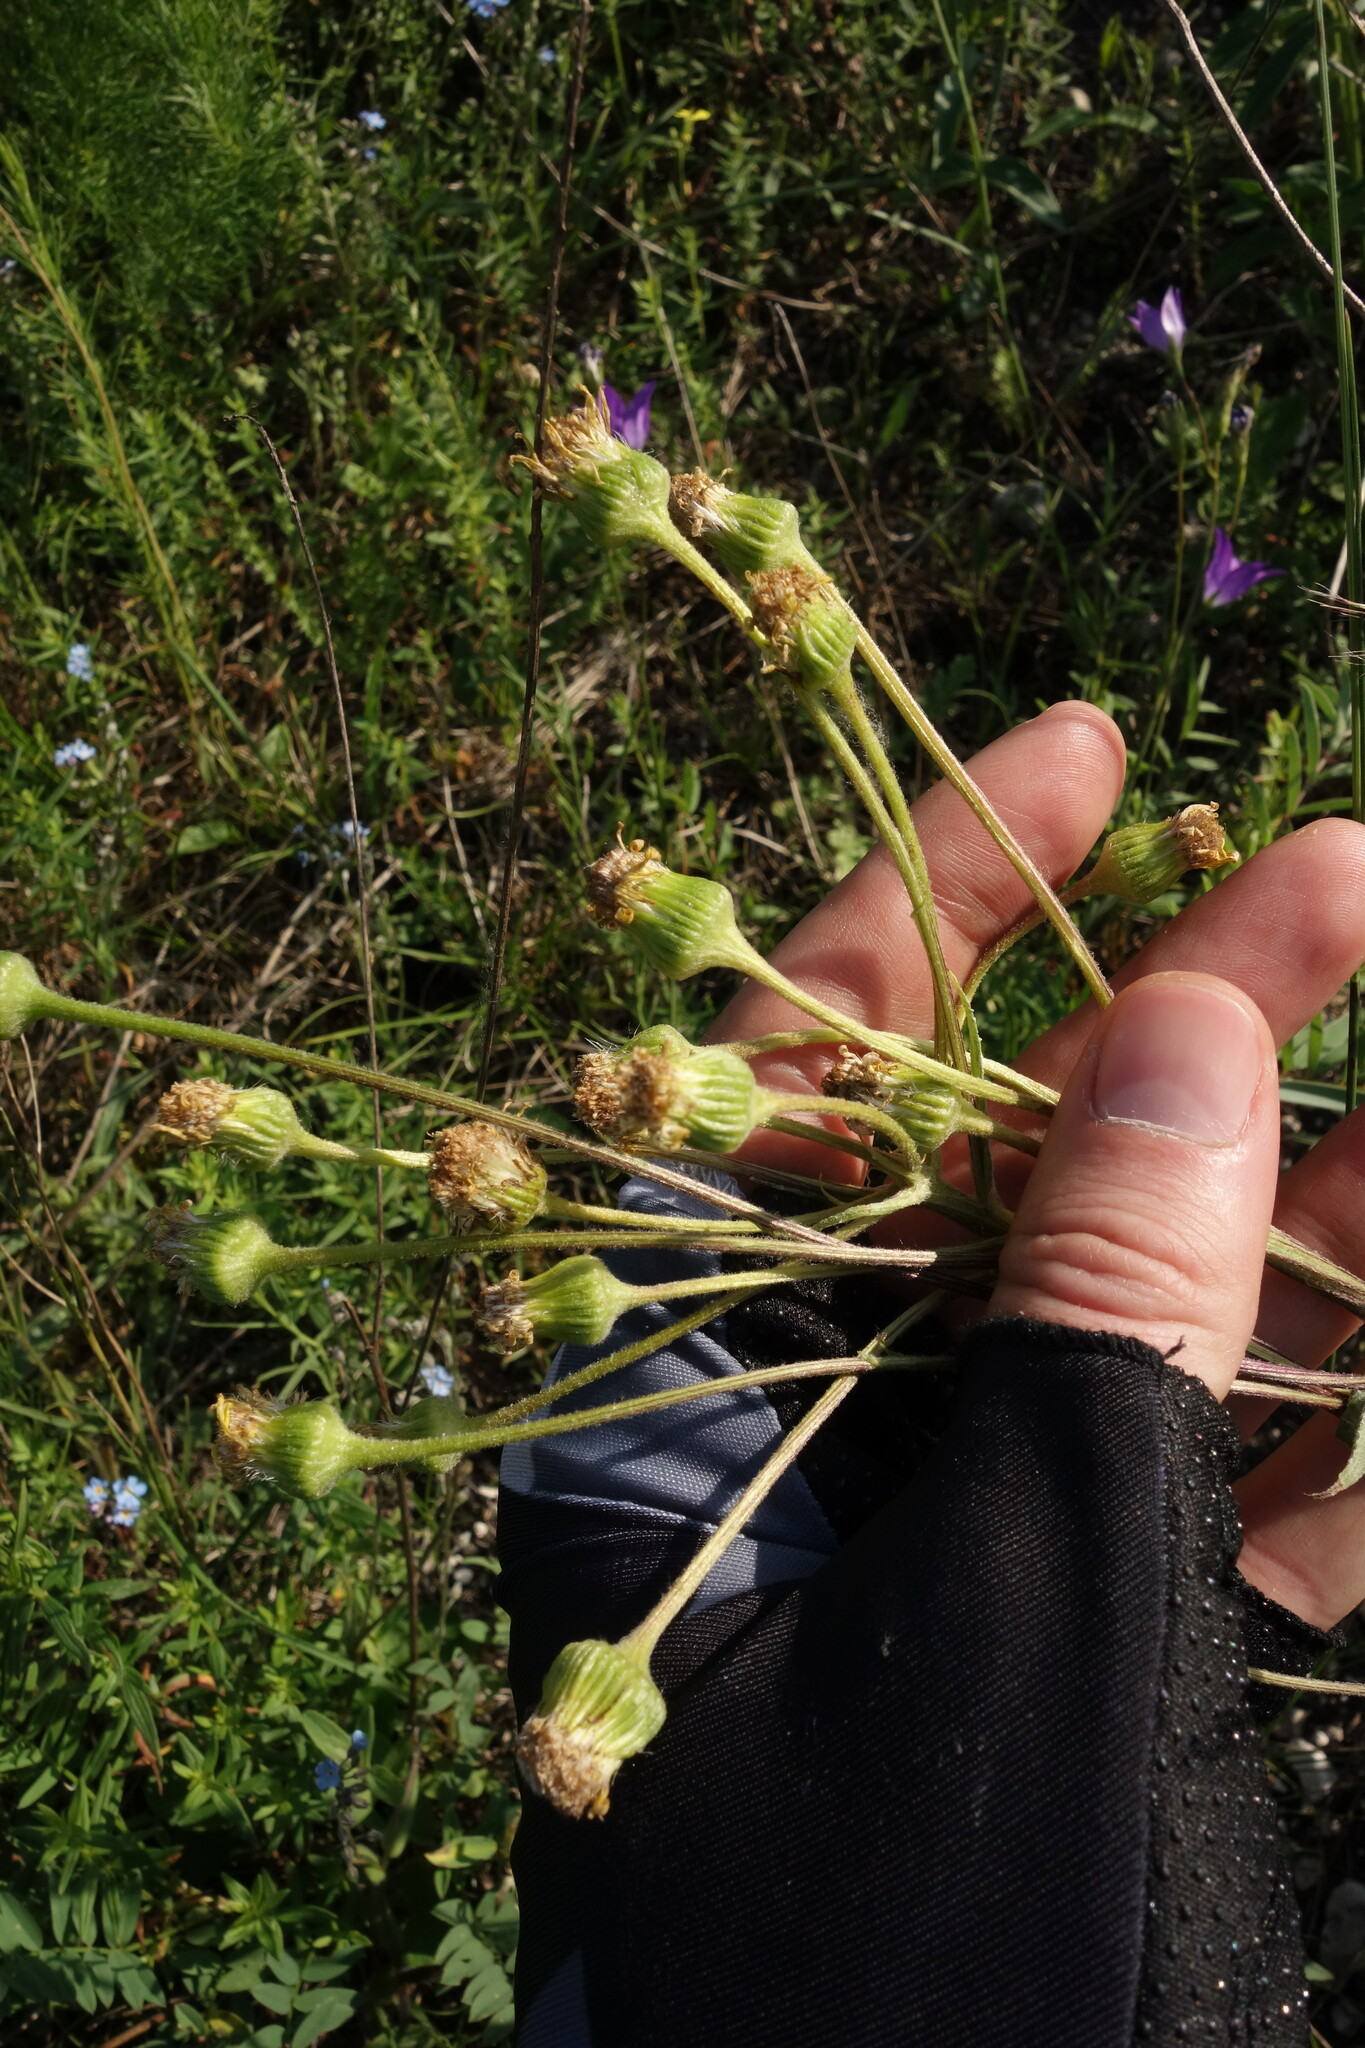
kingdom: Plantae
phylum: Tracheophyta
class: Magnoliopsida
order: Asterales
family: Asteraceae
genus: Tephroseris
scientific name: Tephroseris integrifolia
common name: Field fleawort
